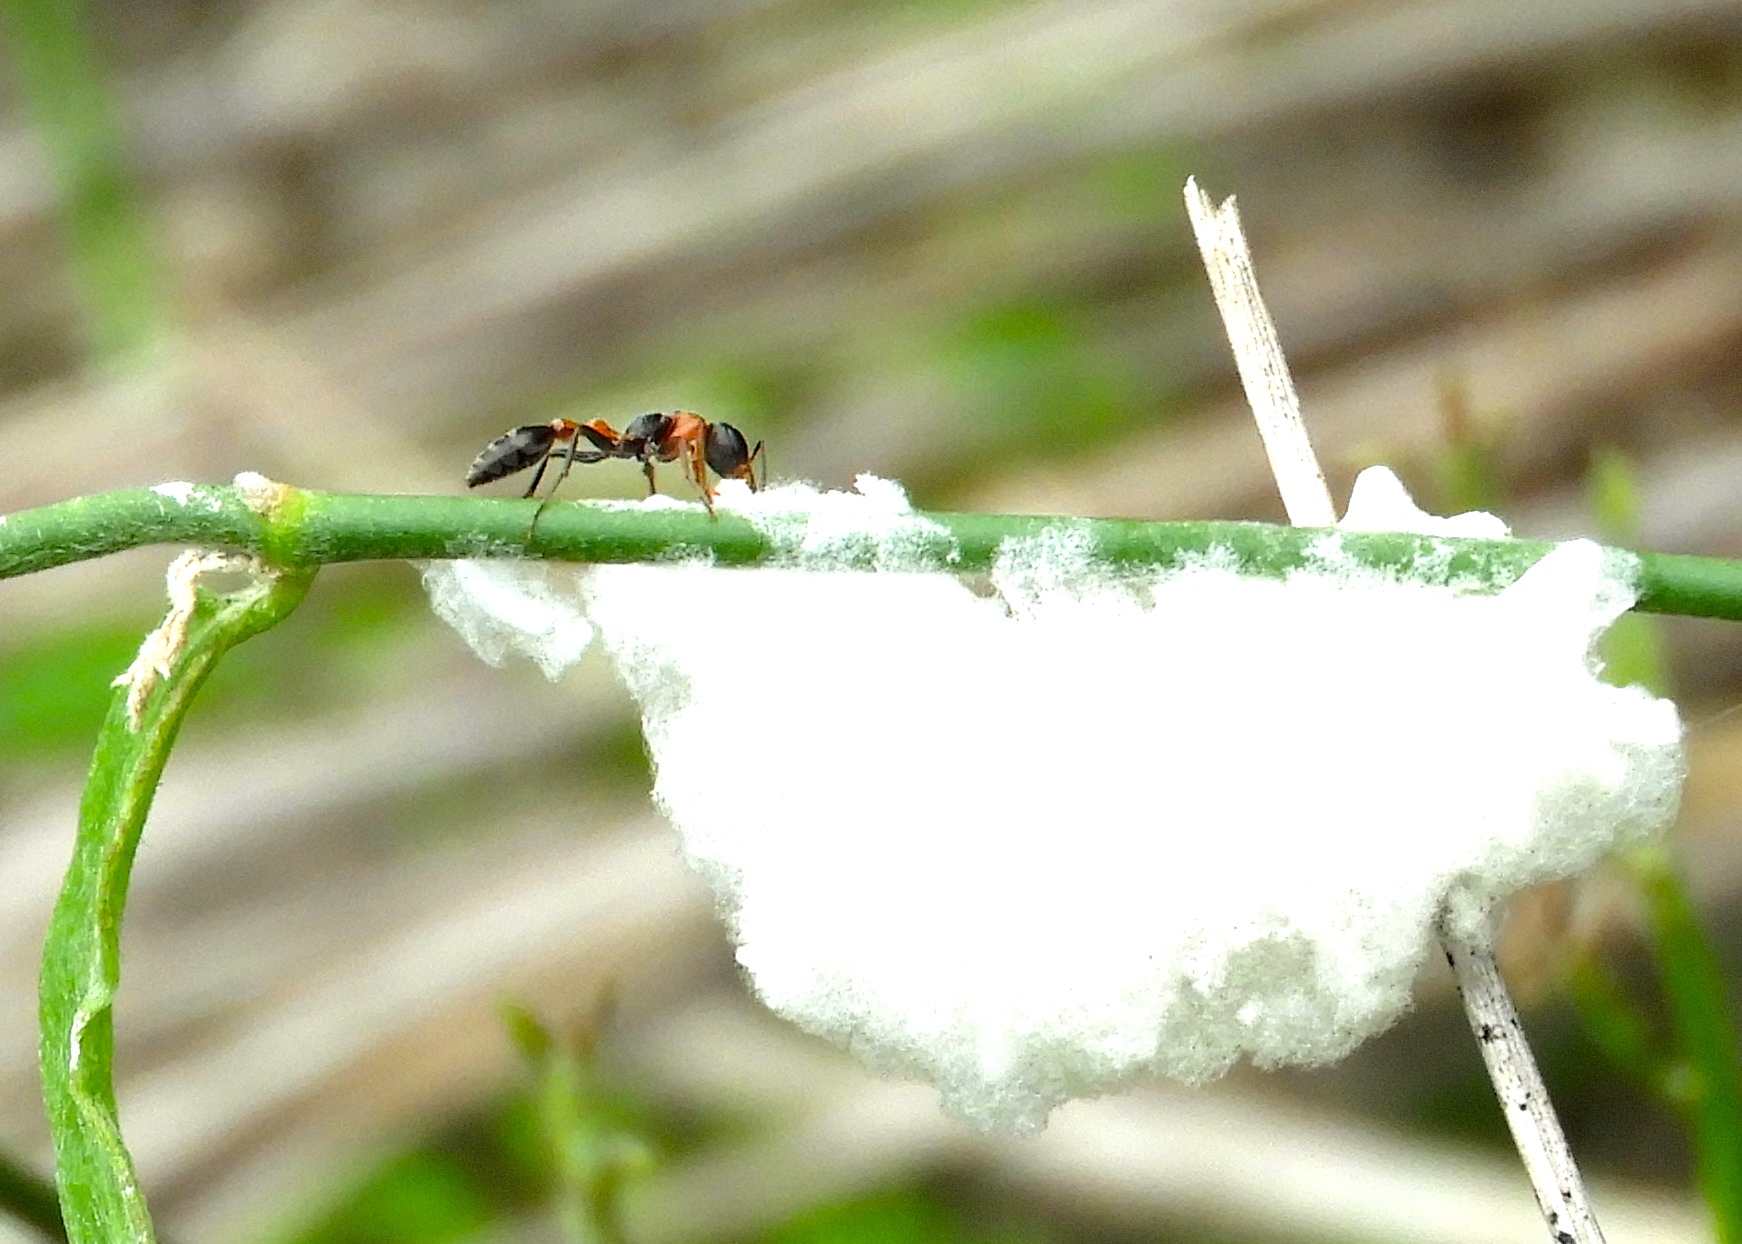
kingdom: Animalia
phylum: Arthropoda
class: Insecta
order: Hymenoptera
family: Formicidae
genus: Pseudomyrmex
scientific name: Pseudomyrmex gracilis
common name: Graceful twig ant
